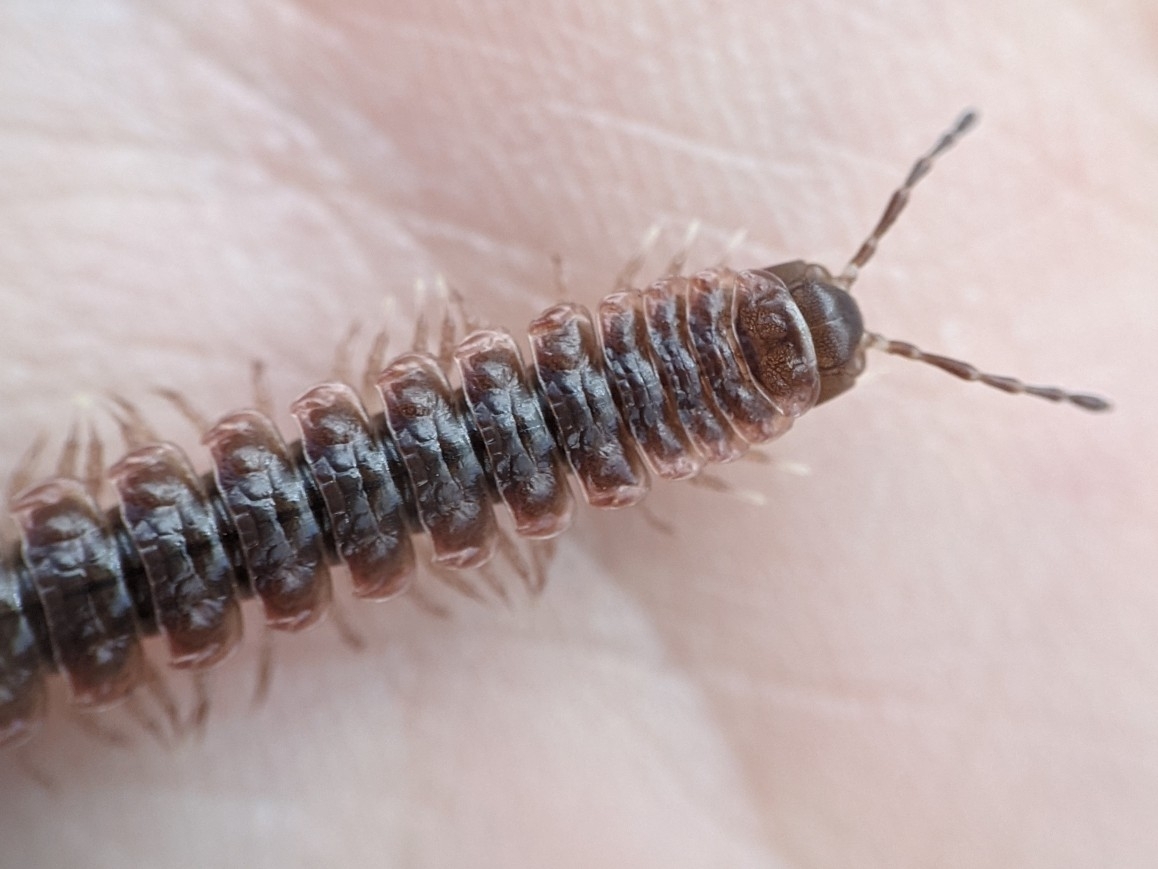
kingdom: Animalia
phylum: Arthropoda
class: Diplopoda
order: Polydesmida
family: Polydesmidae
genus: Pseudopolydesmus
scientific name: Pseudopolydesmus serratus
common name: Common pink flat-back millipede
